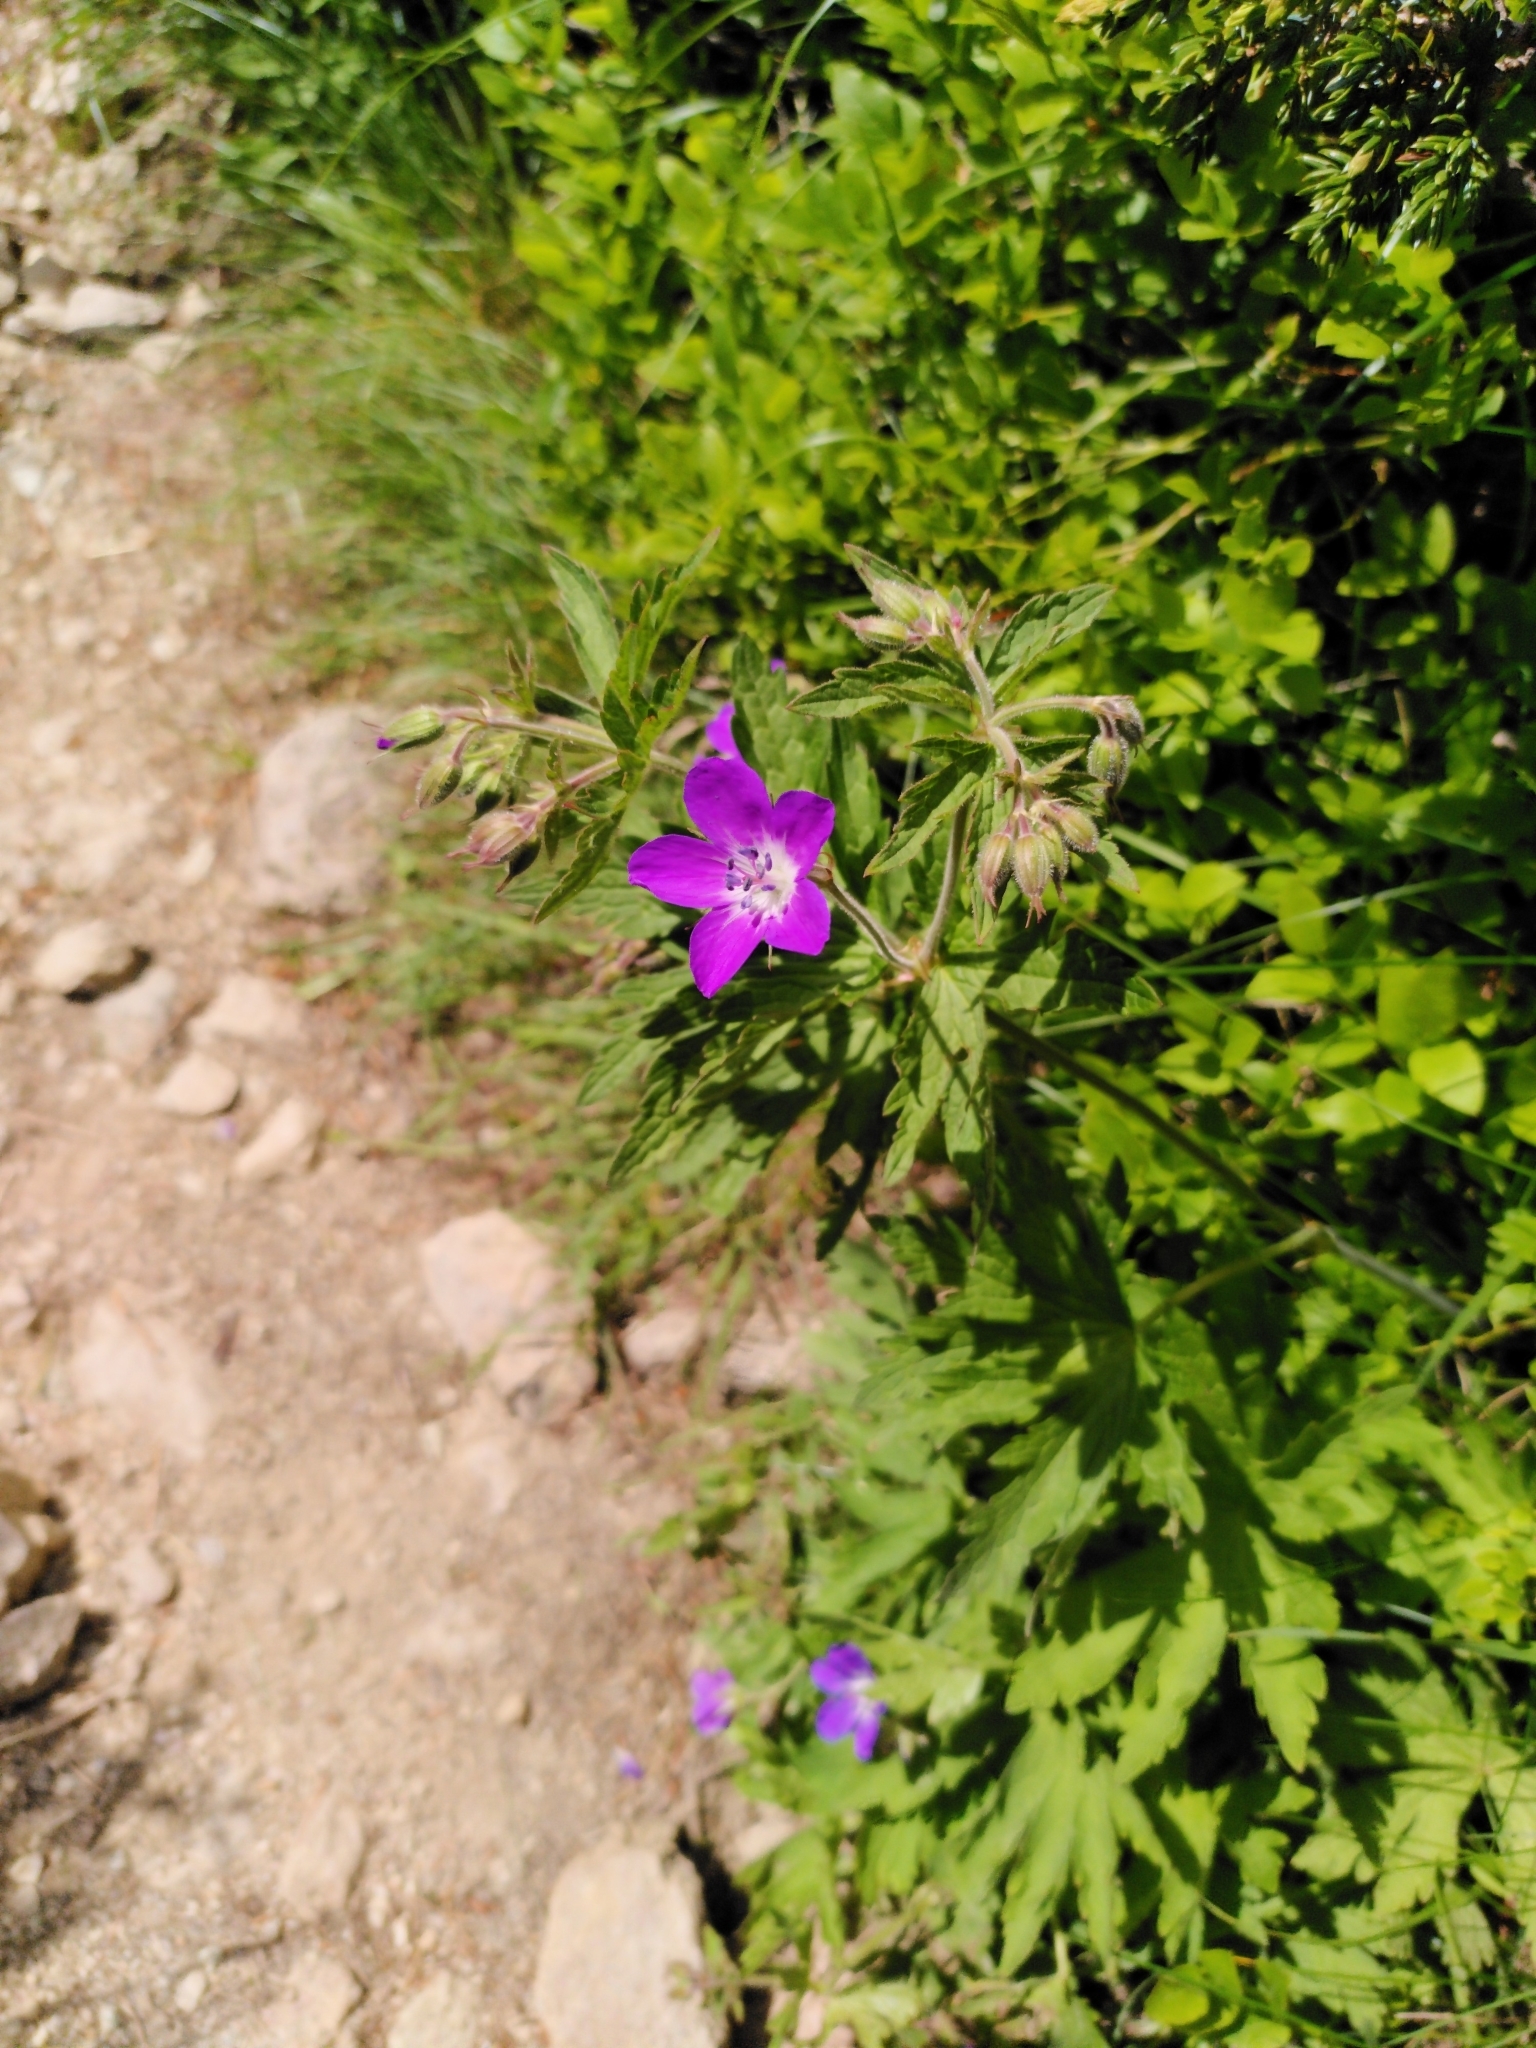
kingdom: Plantae
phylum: Tracheophyta
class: Magnoliopsida
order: Geraniales
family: Geraniaceae
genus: Geranium
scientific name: Geranium sylvaticum
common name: Wood crane's-bill
